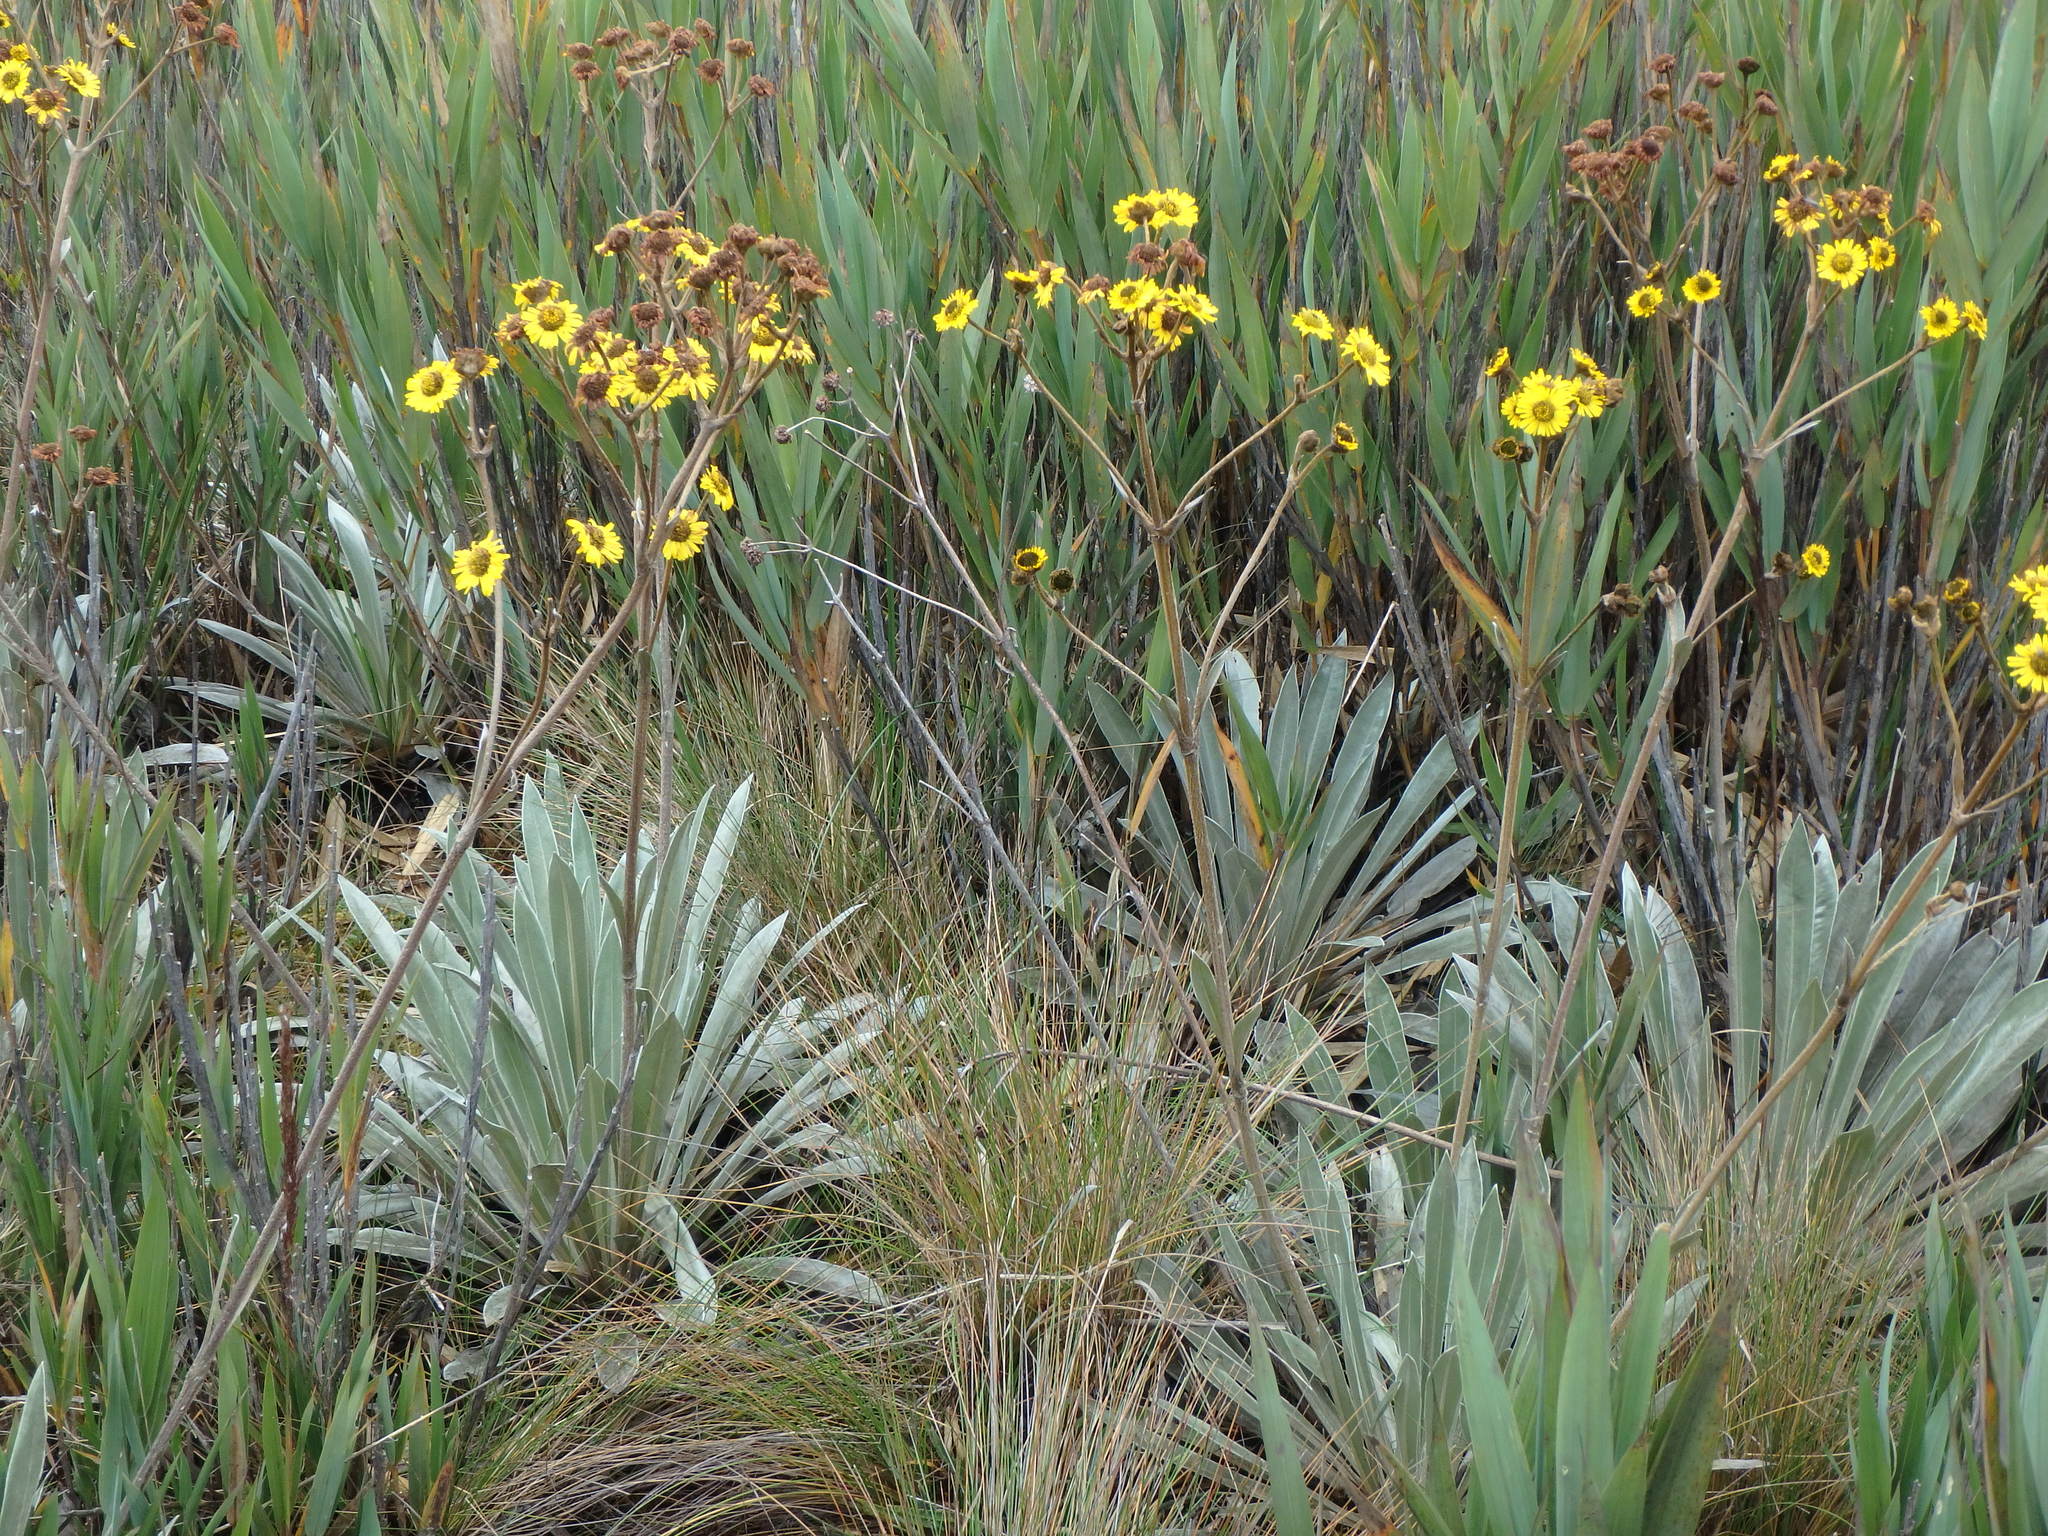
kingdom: Plantae
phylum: Tracheophyta
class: Magnoliopsida
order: Asterales
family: Asteraceae
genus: Espeletia
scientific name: Espeletia boyacensis
